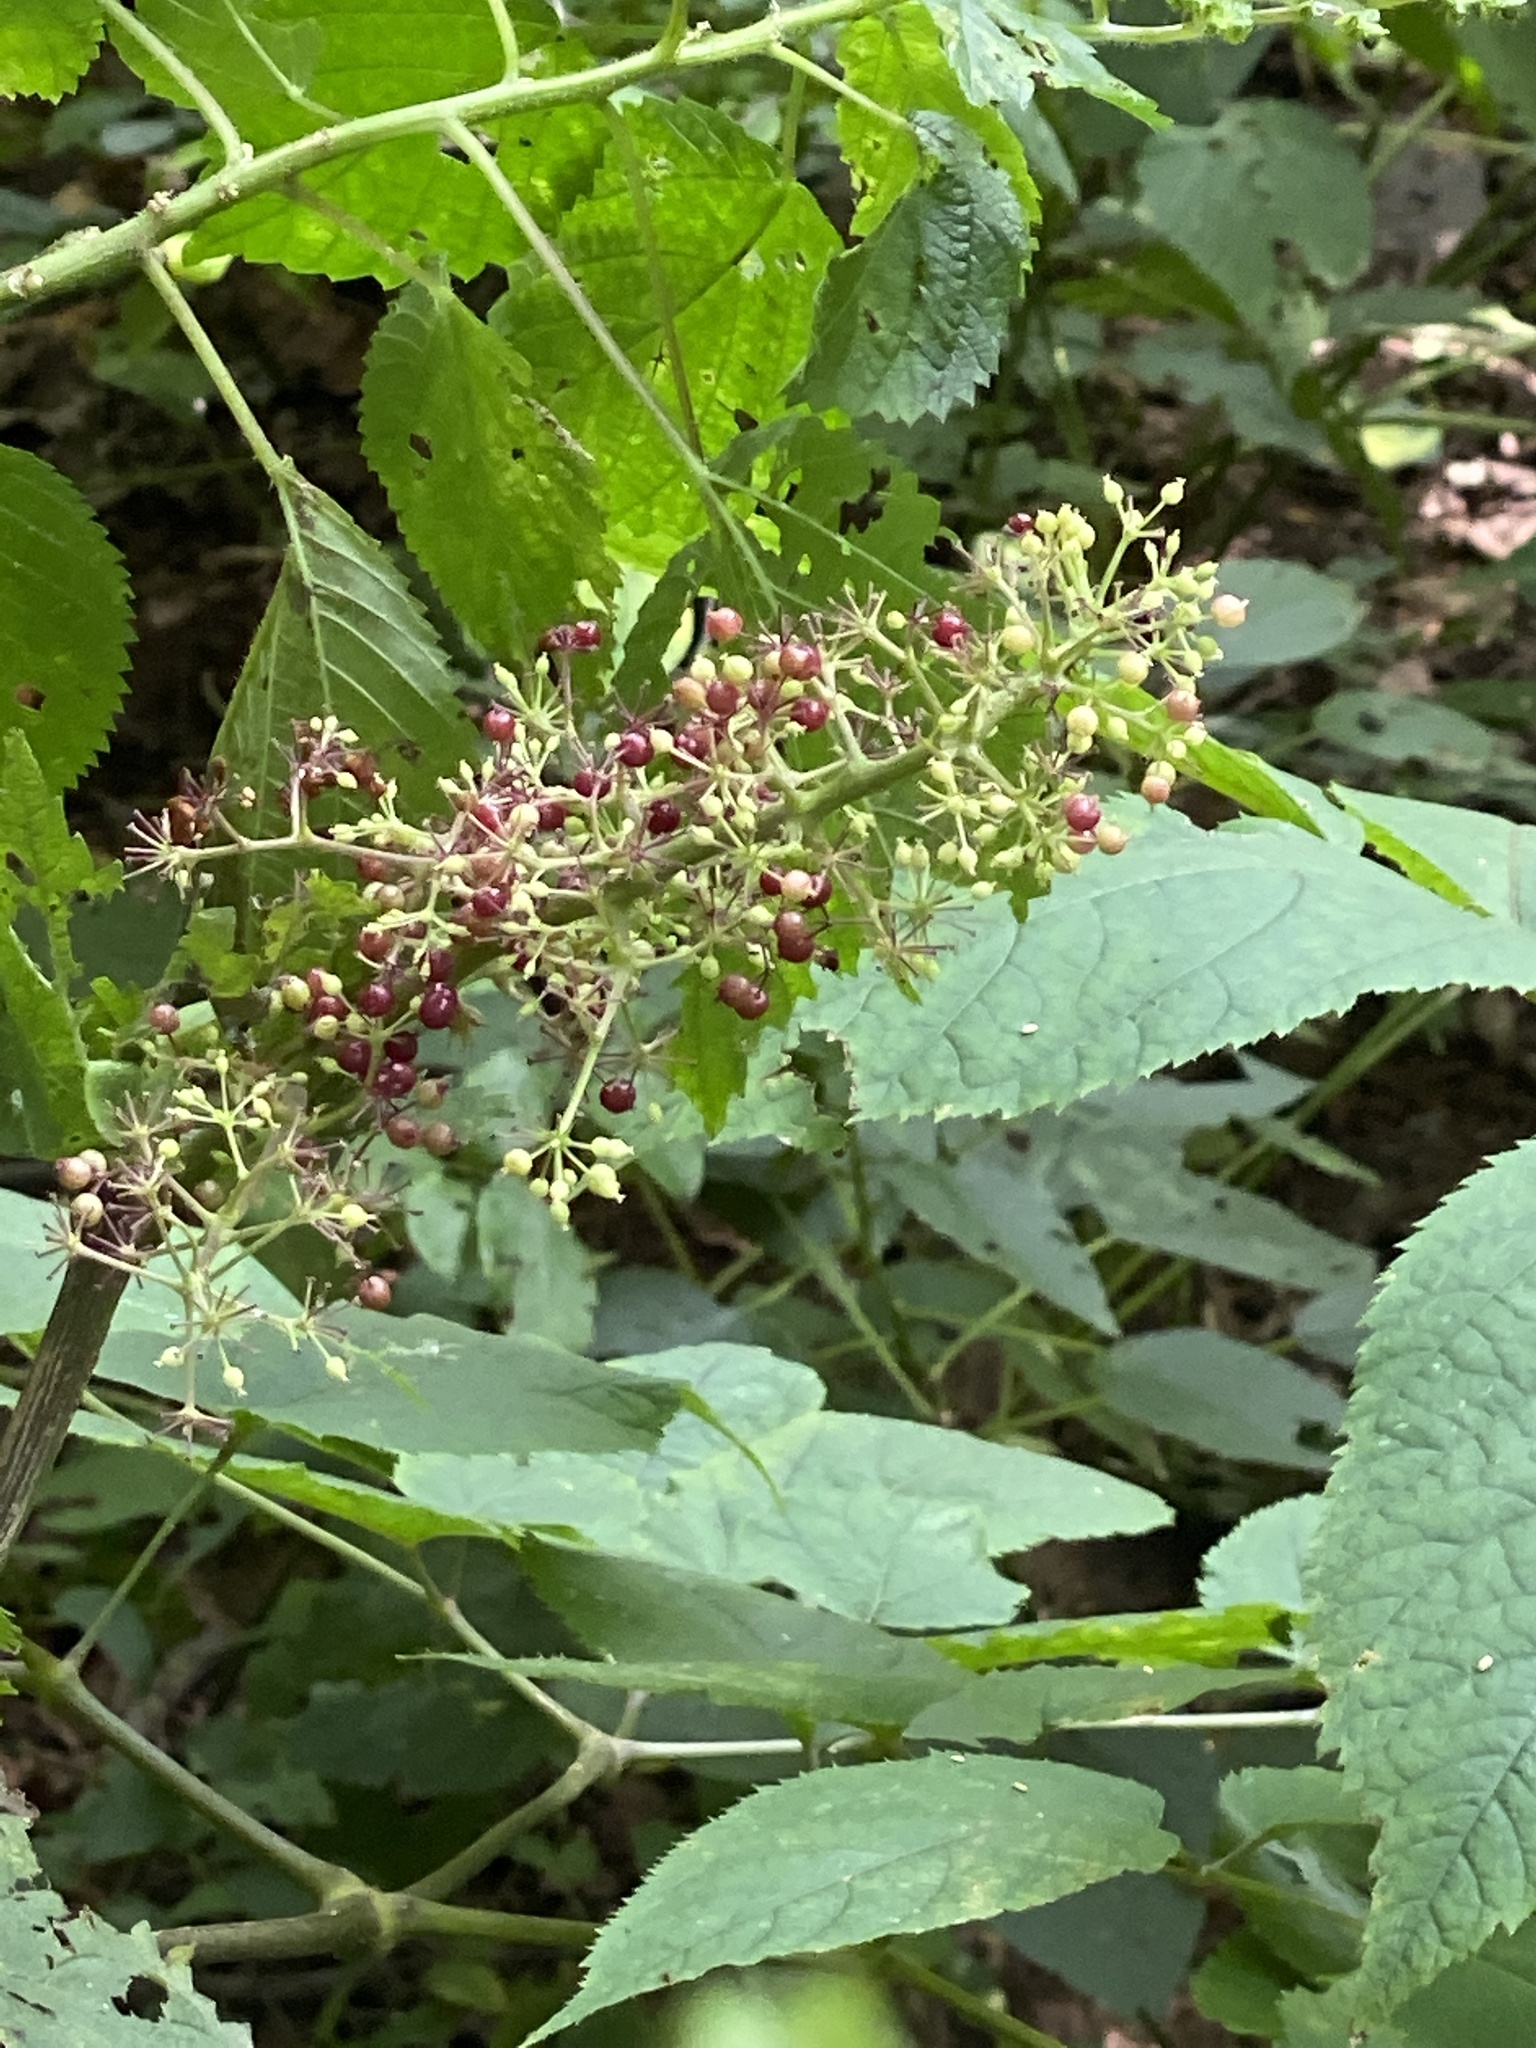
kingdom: Plantae
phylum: Tracheophyta
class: Magnoliopsida
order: Apiales
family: Araliaceae
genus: Aralia
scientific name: Aralia racemosa
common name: American-spikenard
